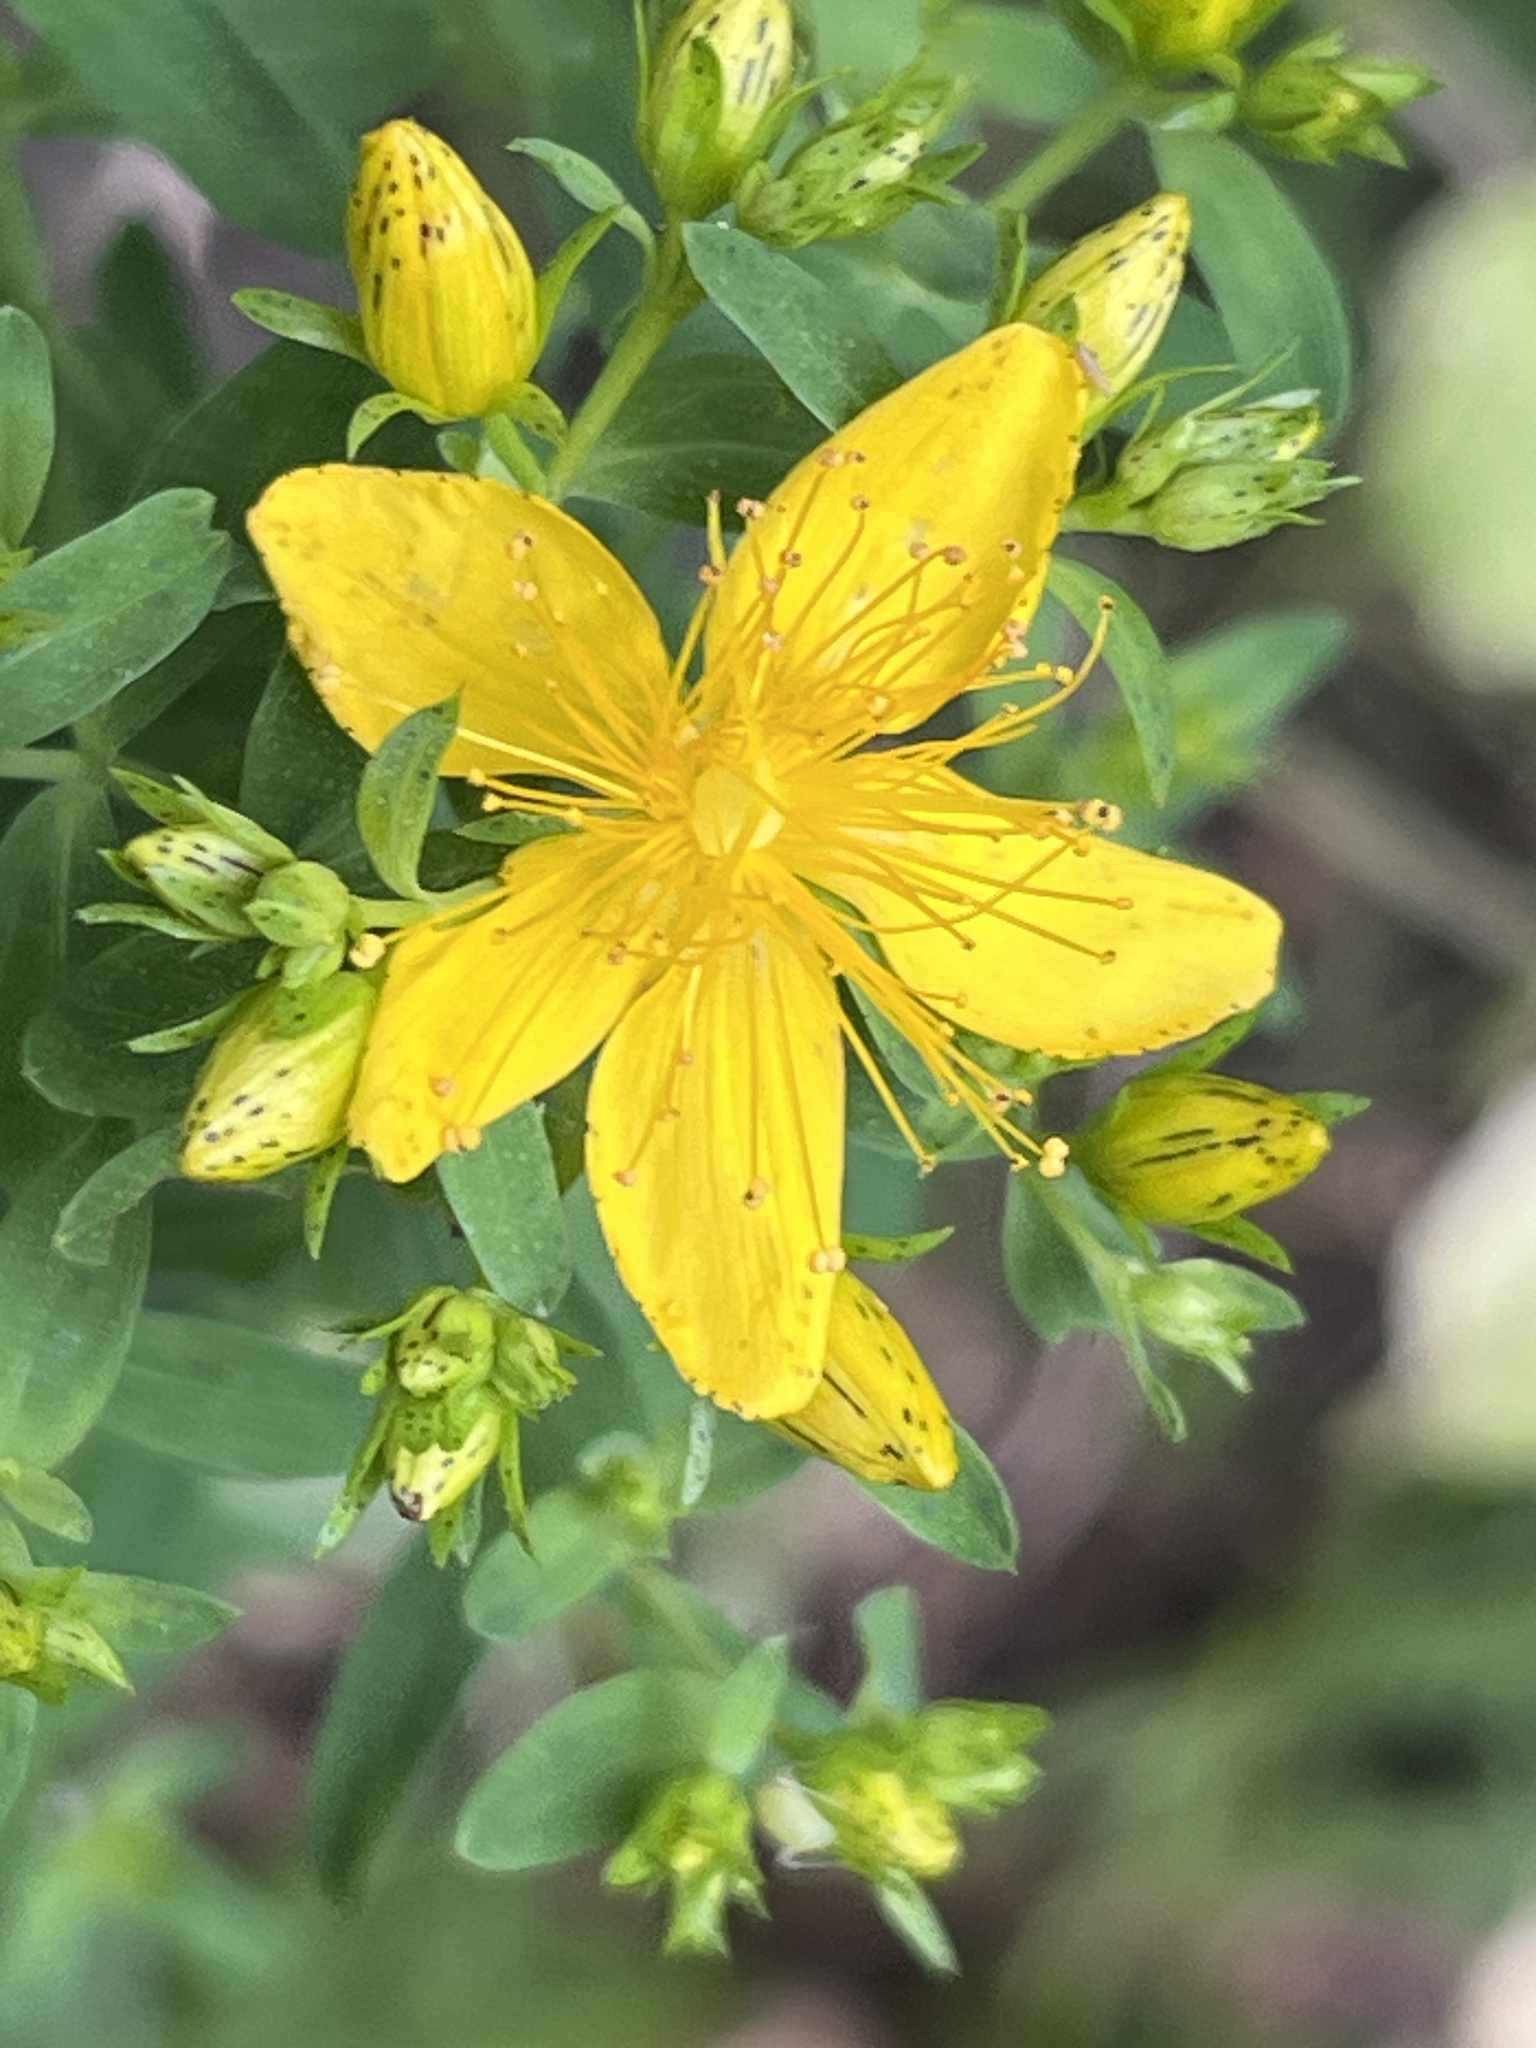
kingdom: Plantae
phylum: Tracheophyta
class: Magnoliopsida
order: Malpighiales
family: Hypericaceae
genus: Hypericum
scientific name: Hypericum perforatum
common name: Common st. johnswort
